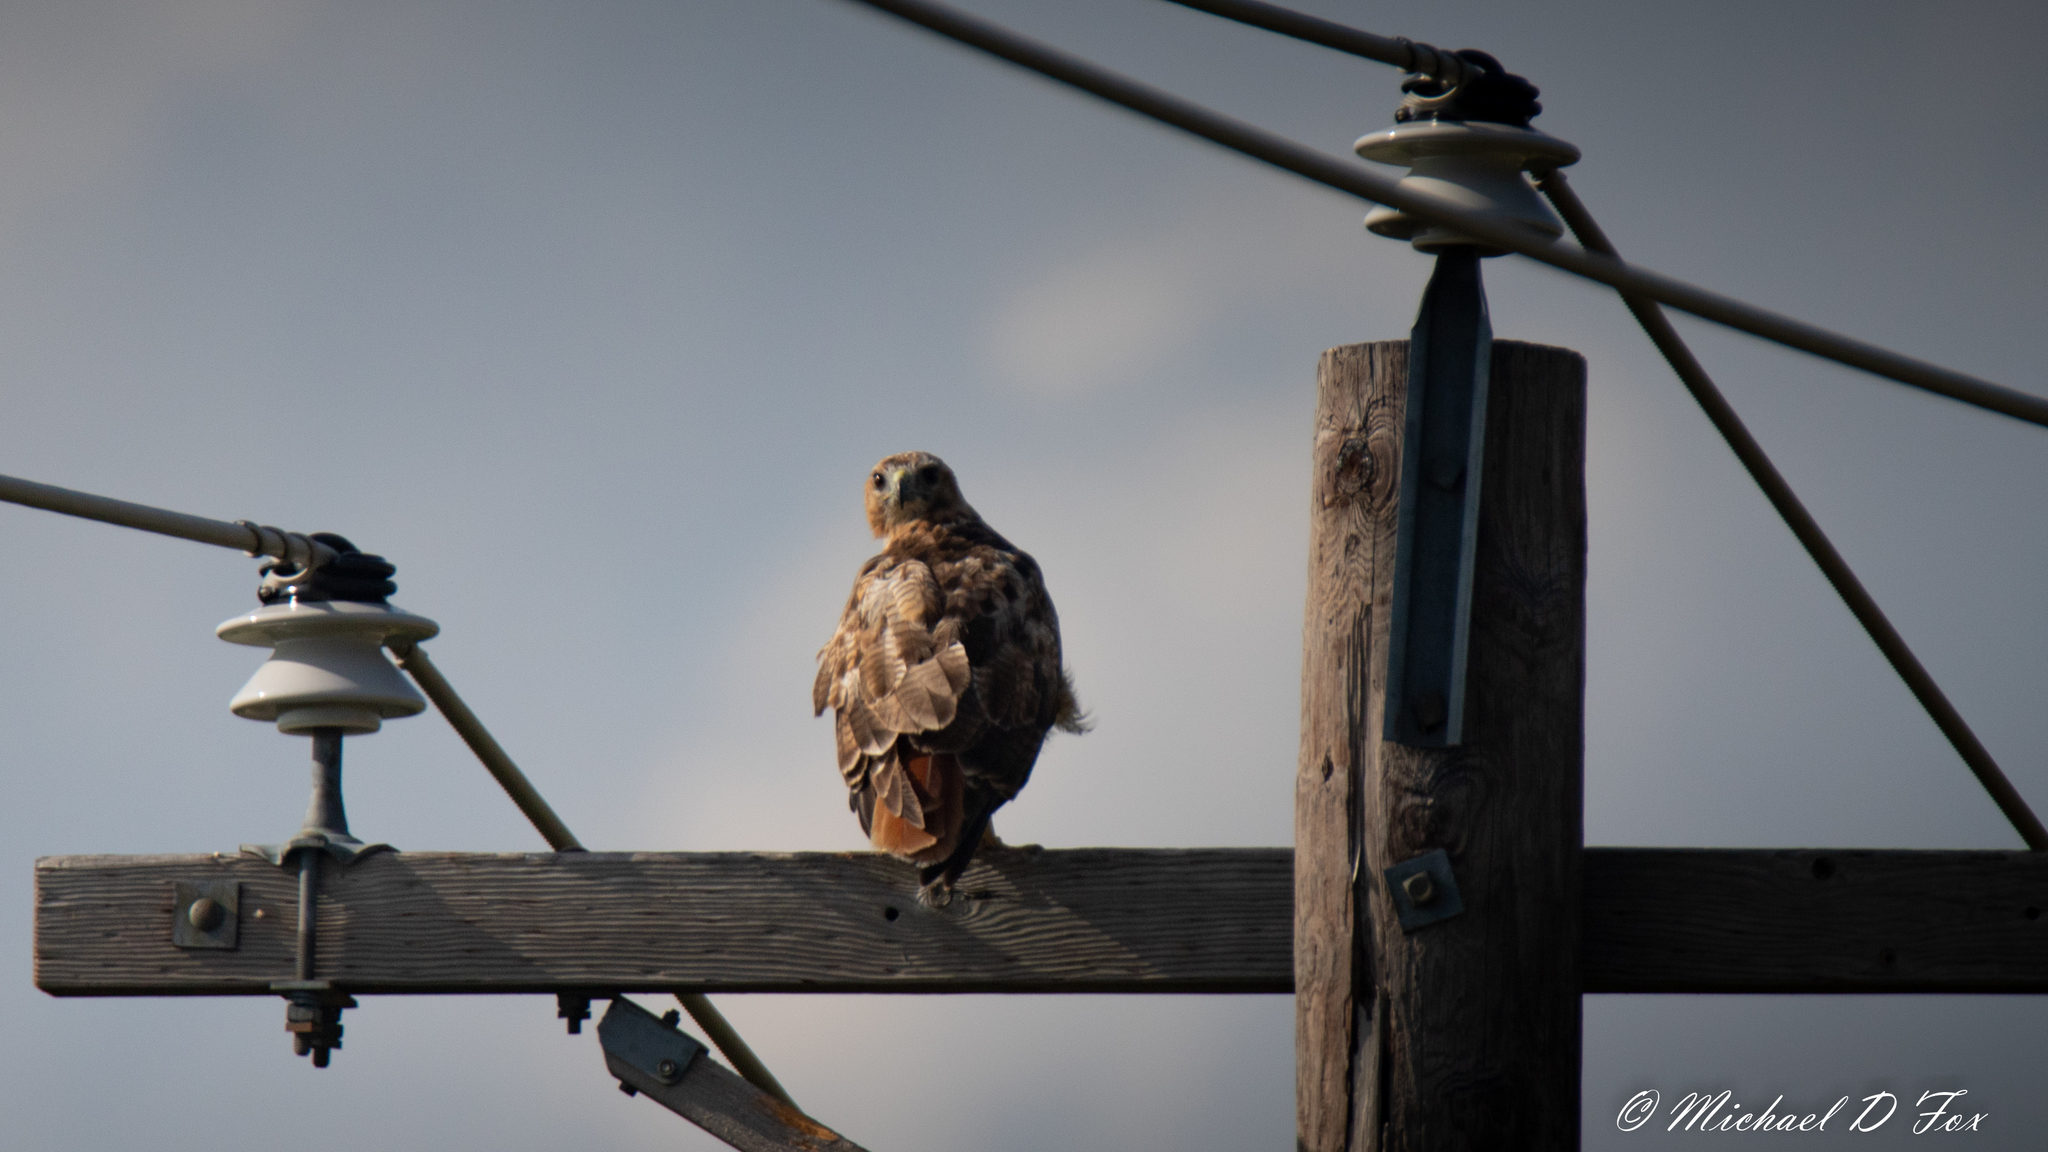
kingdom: Animalia
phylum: Chordata
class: Aves
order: Accipitriformes
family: Accipitridae
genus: Buteo
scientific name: Buteo jamaicensis
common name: Red-tailed hawk
